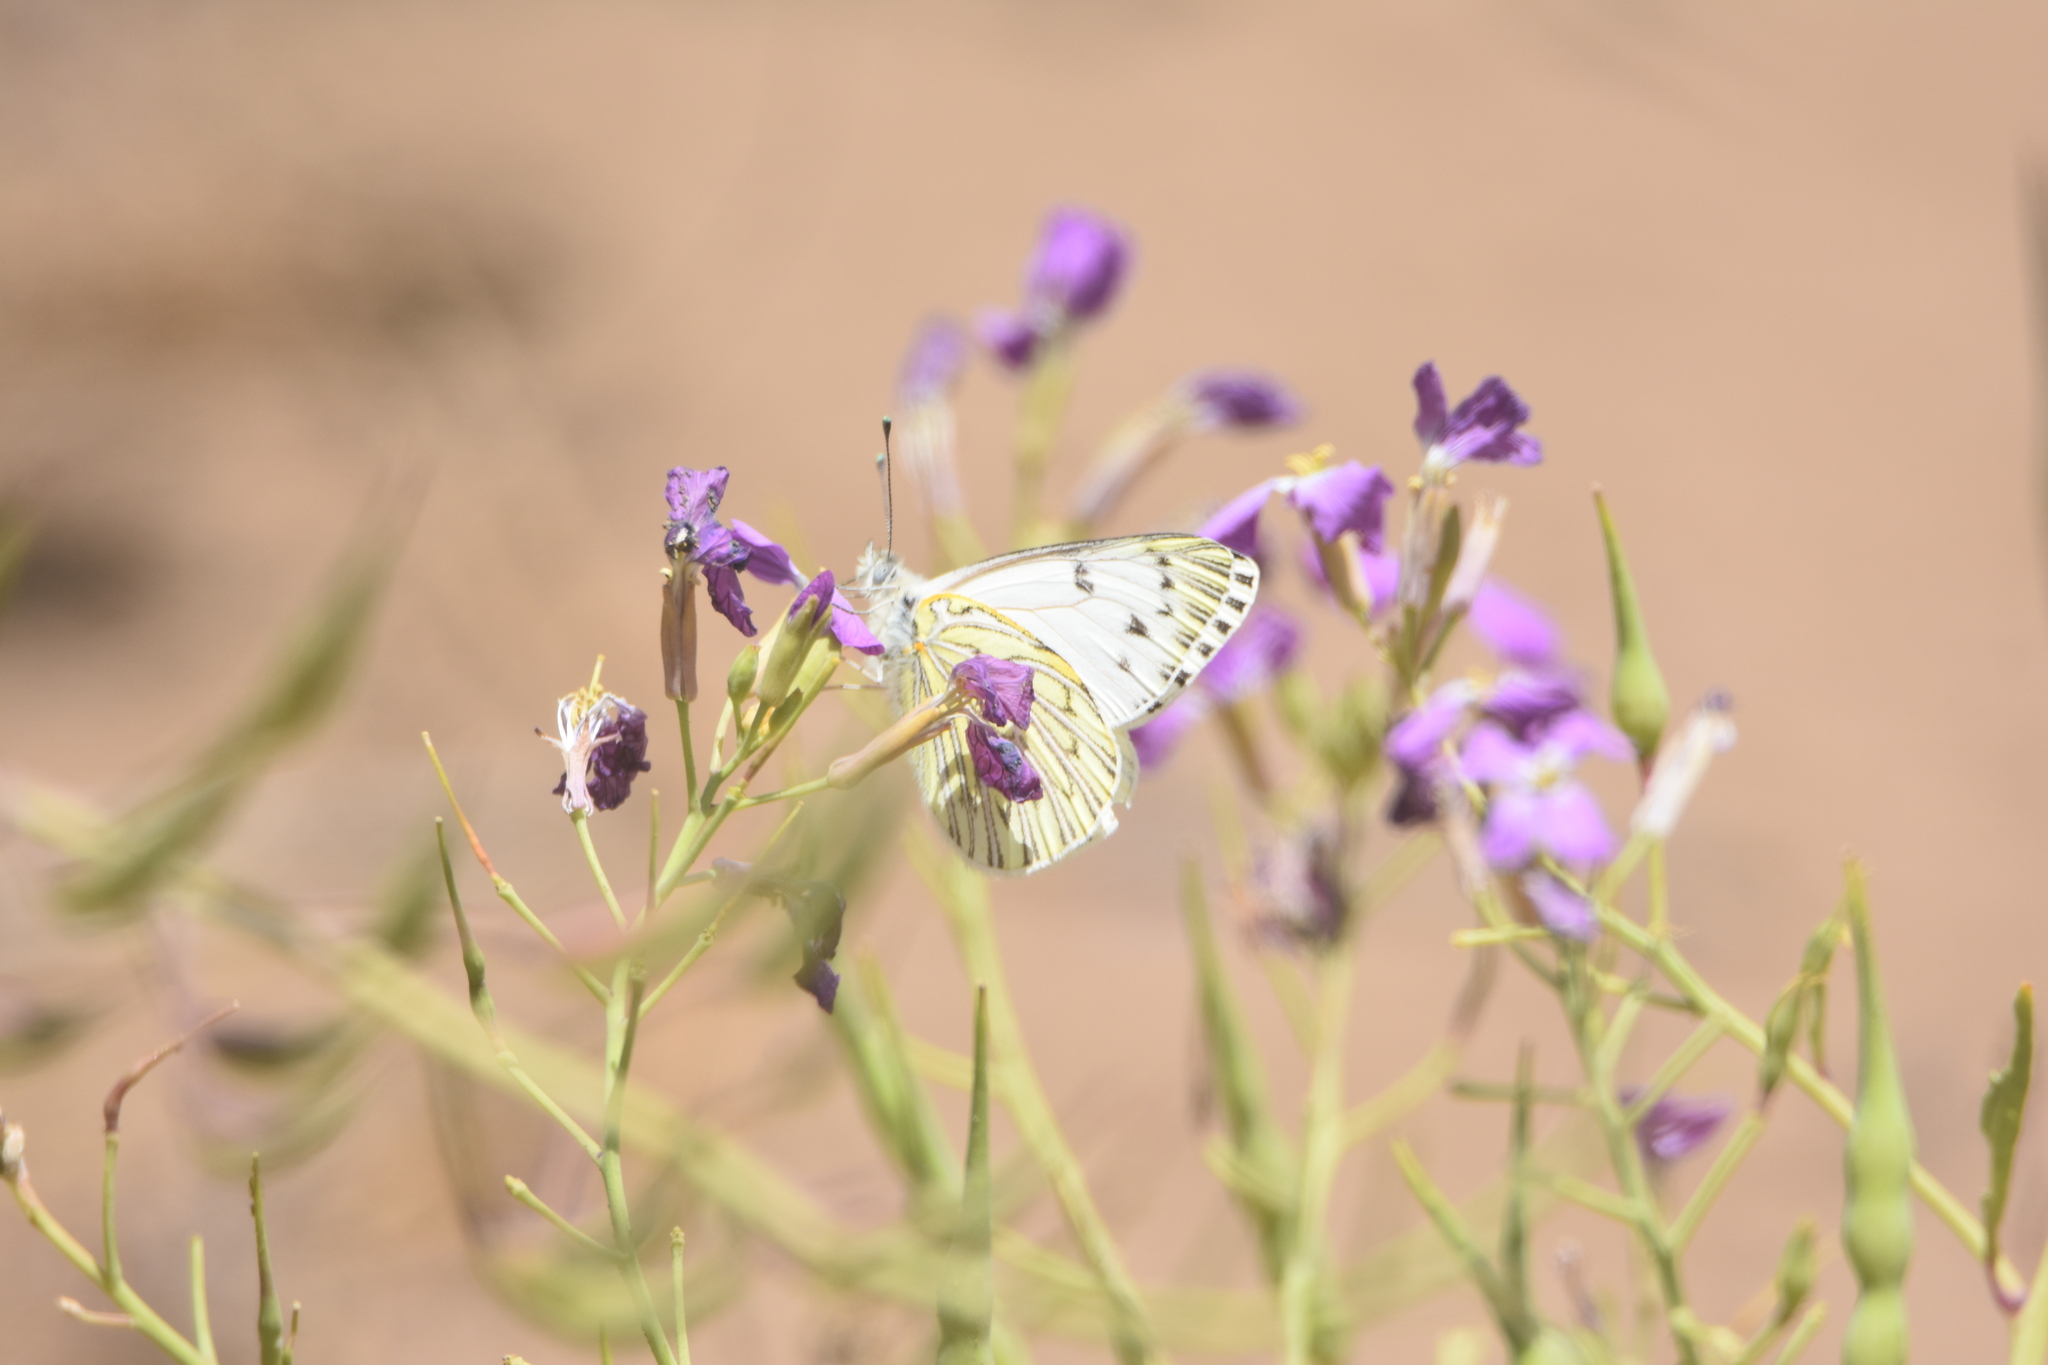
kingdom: Animalia
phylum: Arthropoda
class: Insecta
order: Lepidoptera
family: Pieridae
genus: Tatochila
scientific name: Tatochila mercedis
